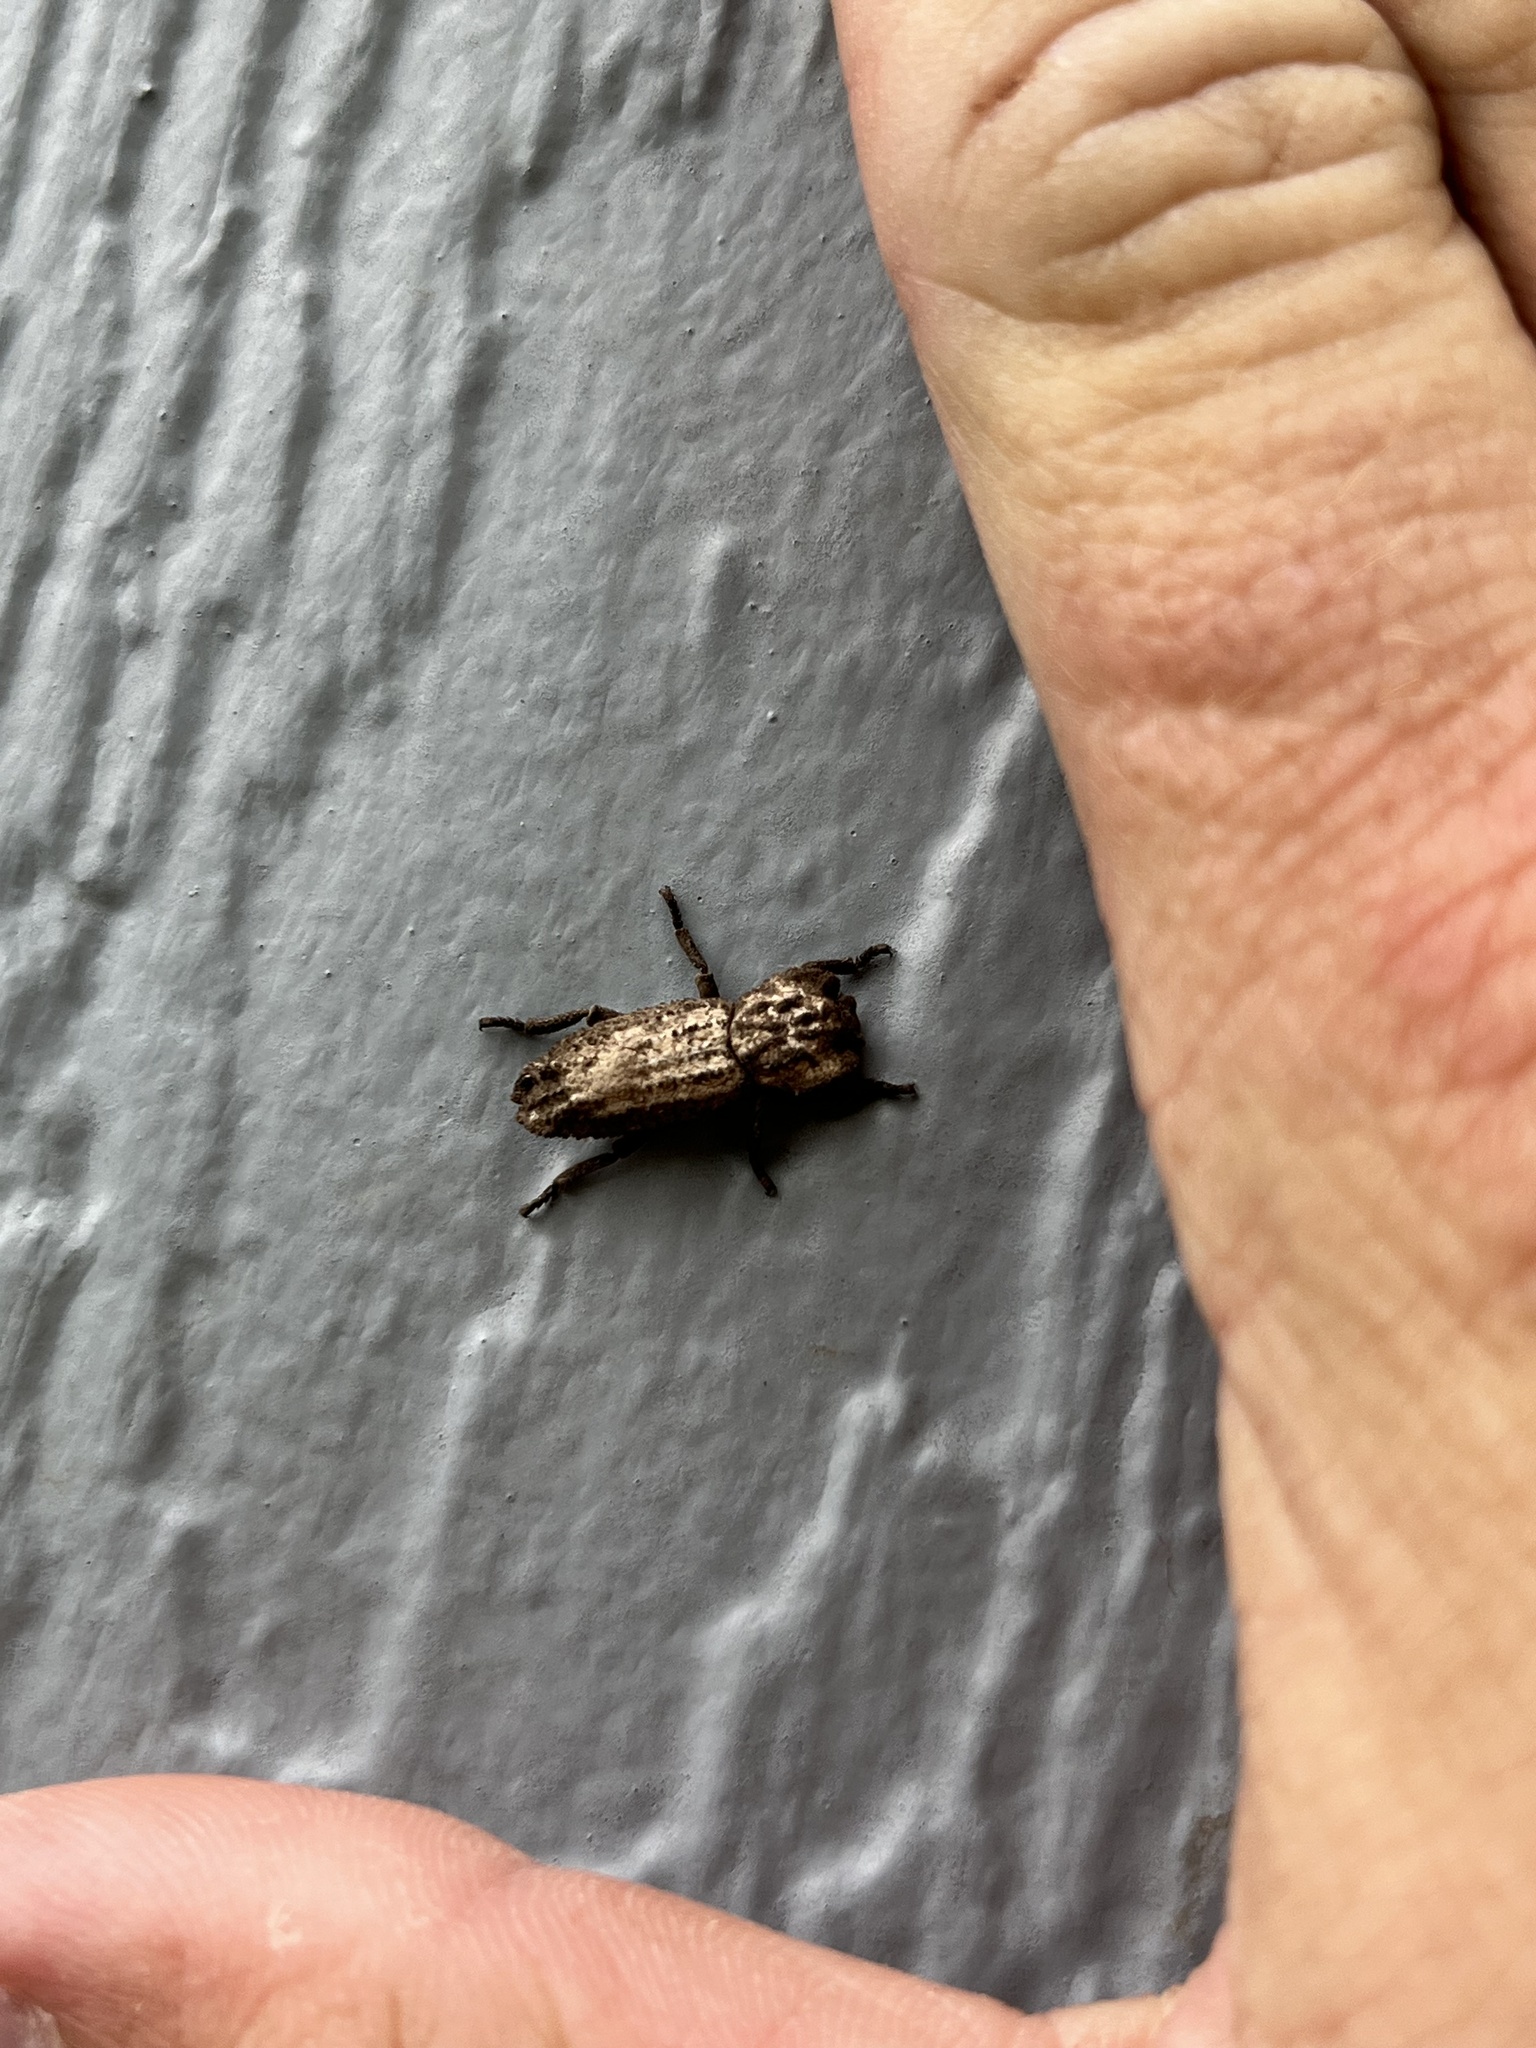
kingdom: Animalia
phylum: Arthropoda
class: Insecta
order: Coleoptera
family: Zopheridae
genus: Sesaspis
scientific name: Sesaspis
